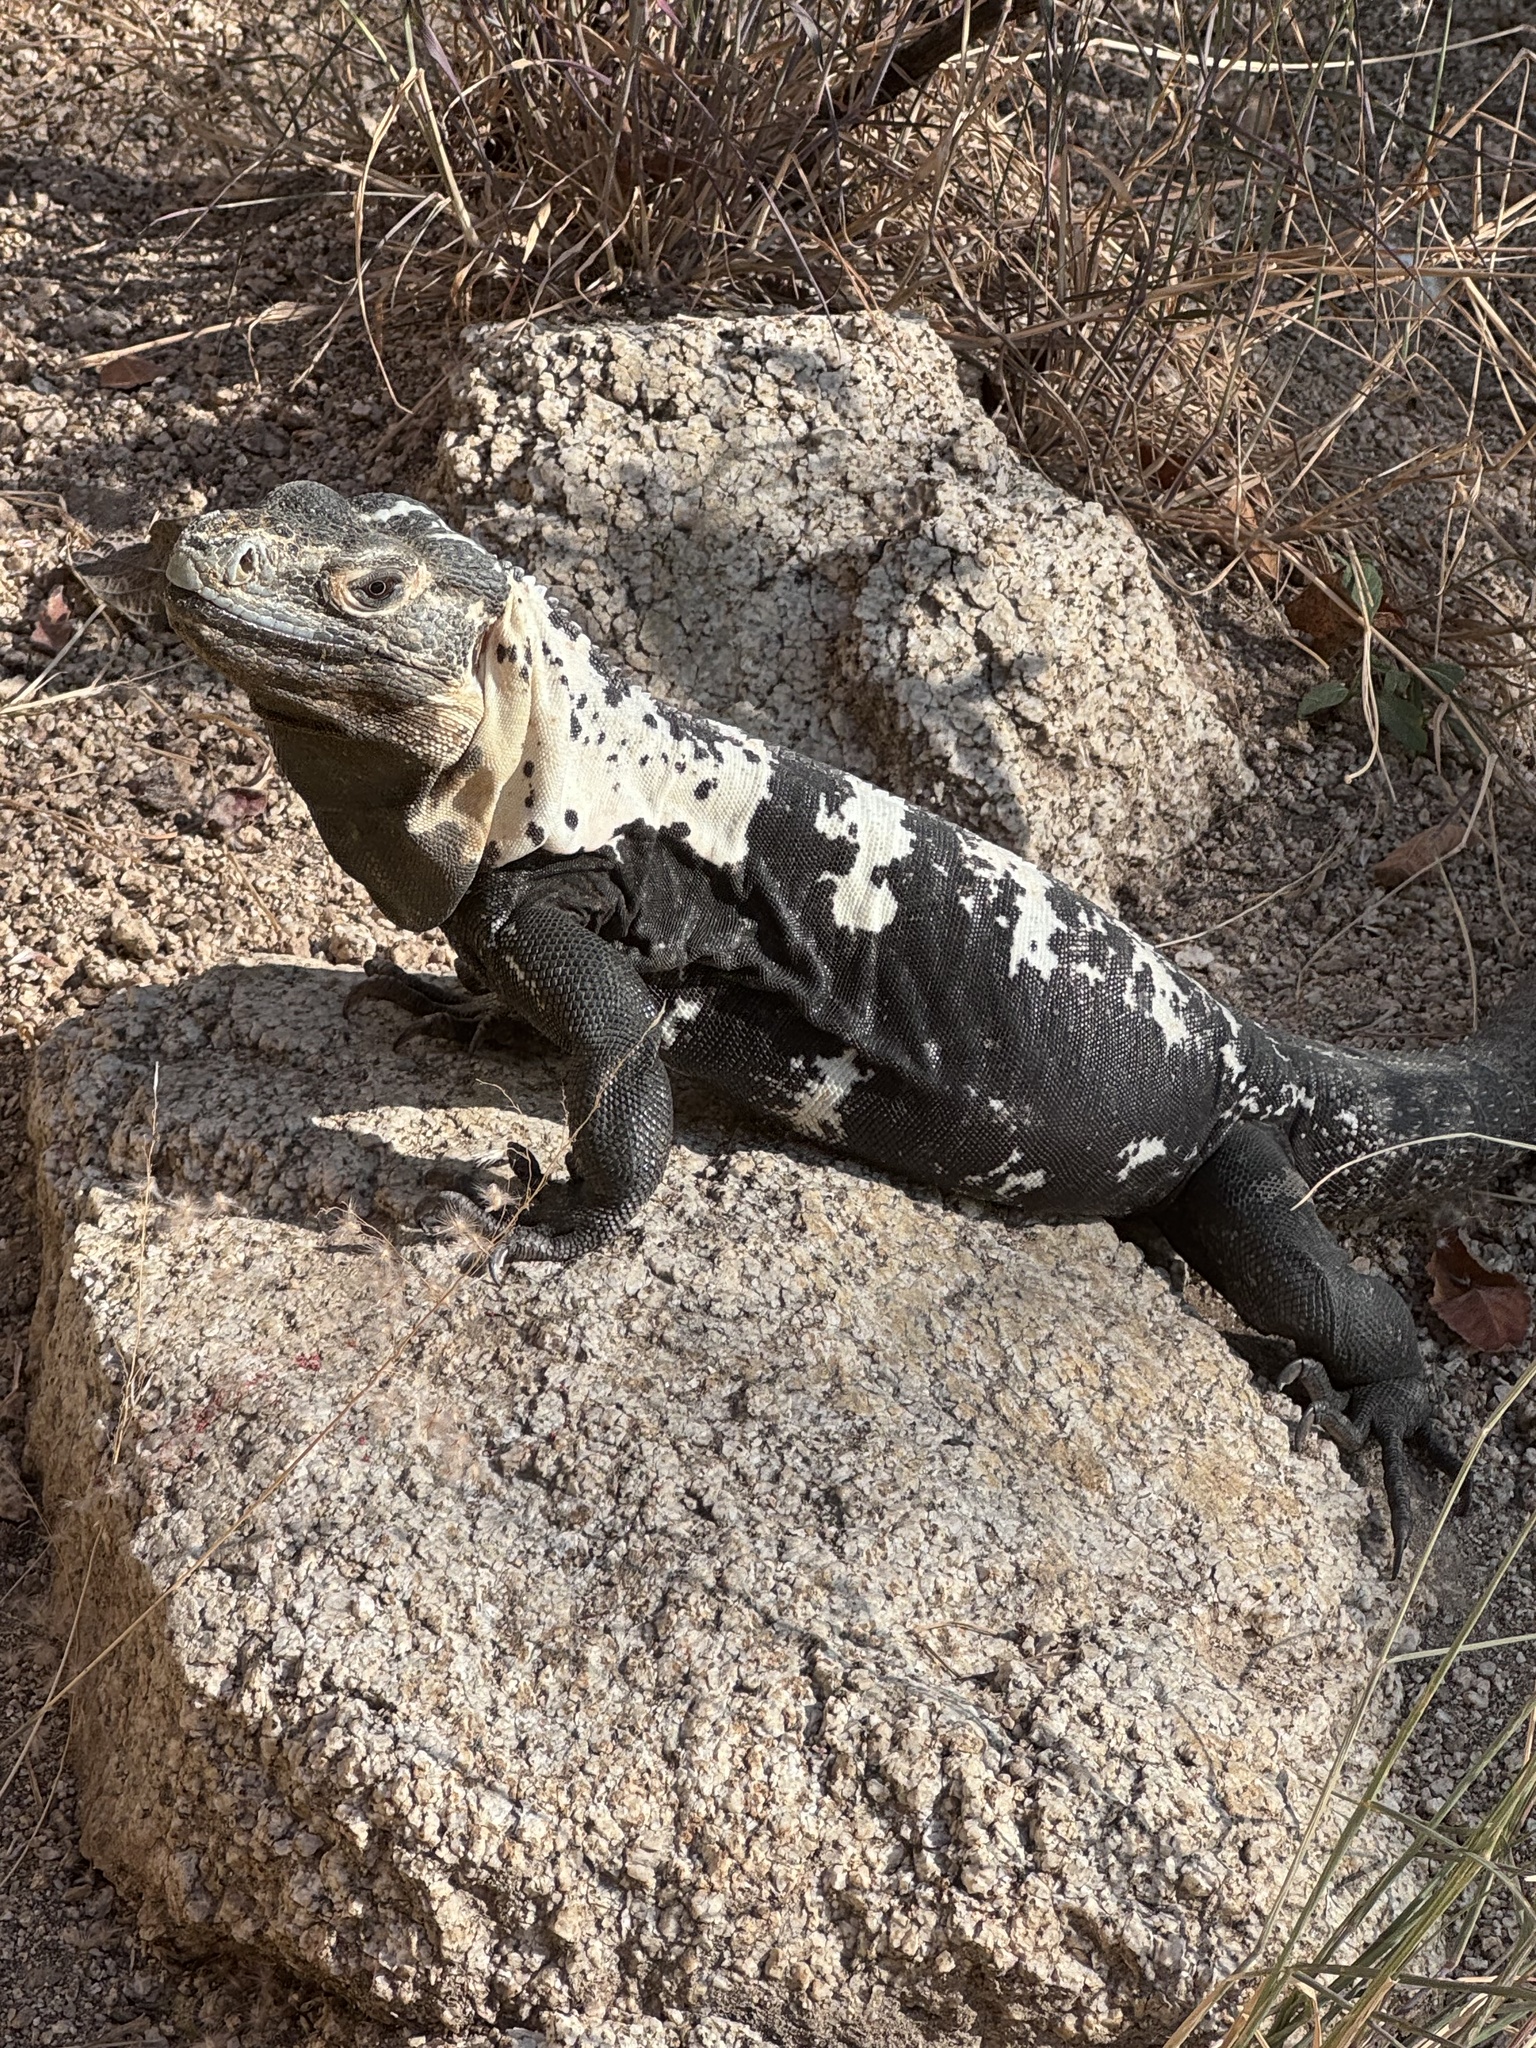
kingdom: Animalia
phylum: Chordata
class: Squamata
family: Iguanidae
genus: Ctenosaura
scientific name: Ctenosaura pectinata
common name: Guerreran spiny-tailed iguana
